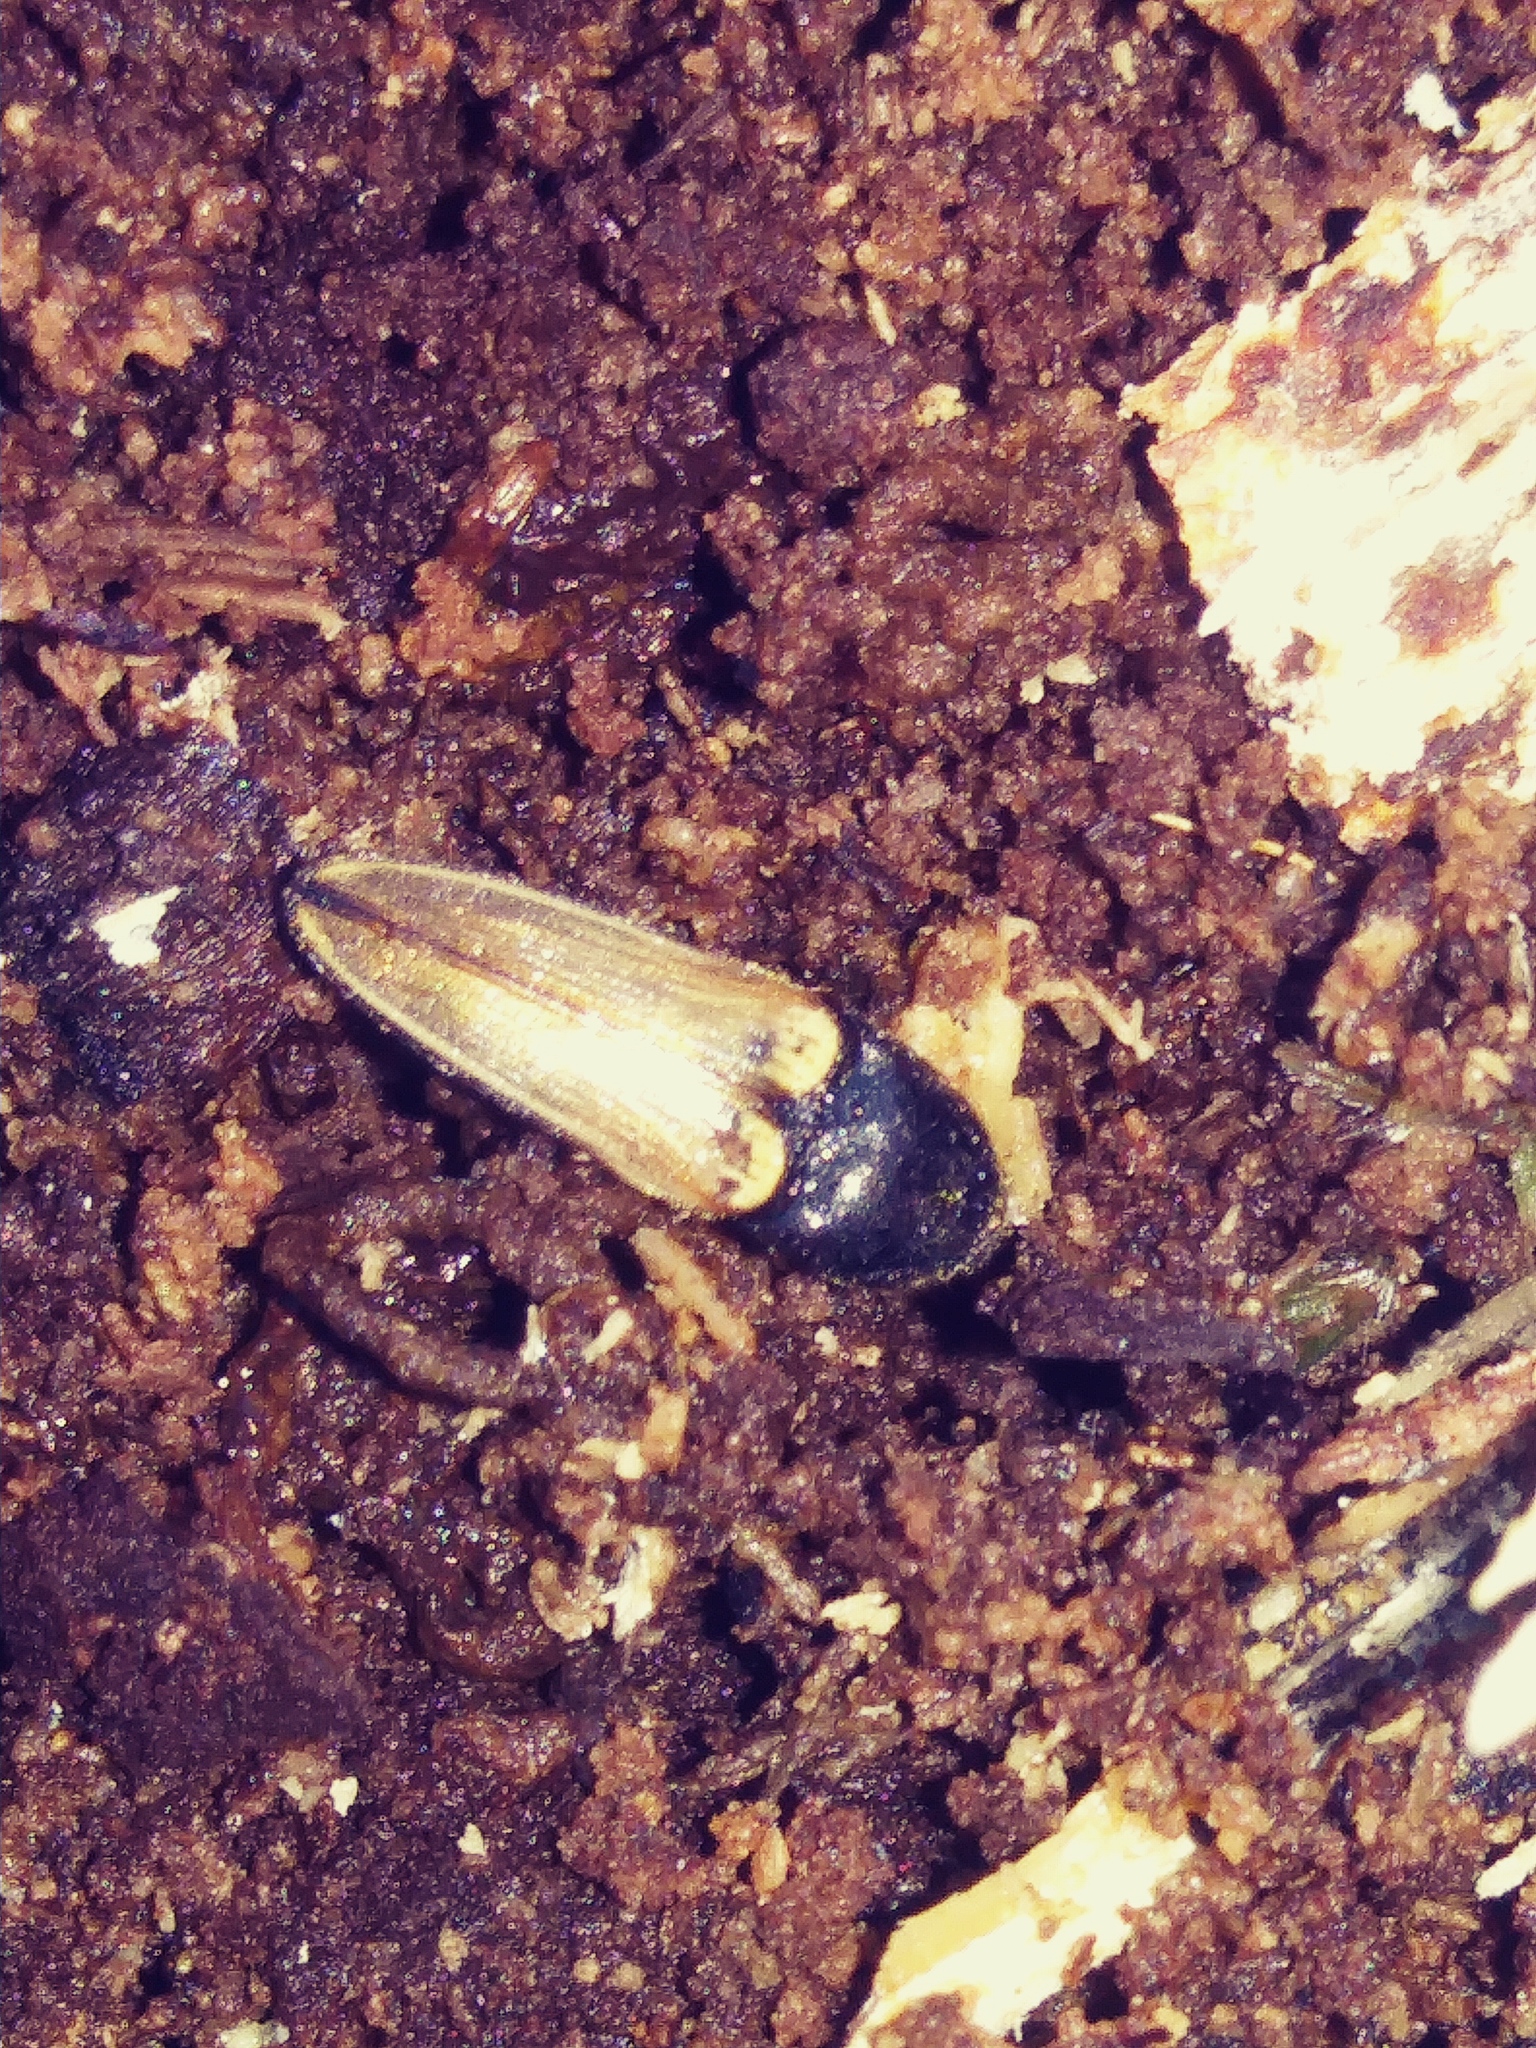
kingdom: Animalia
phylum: Arthropoda
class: Insecta
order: Coleoptera
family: Elateridae
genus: Ampedus
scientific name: Ampedus nigricollis
